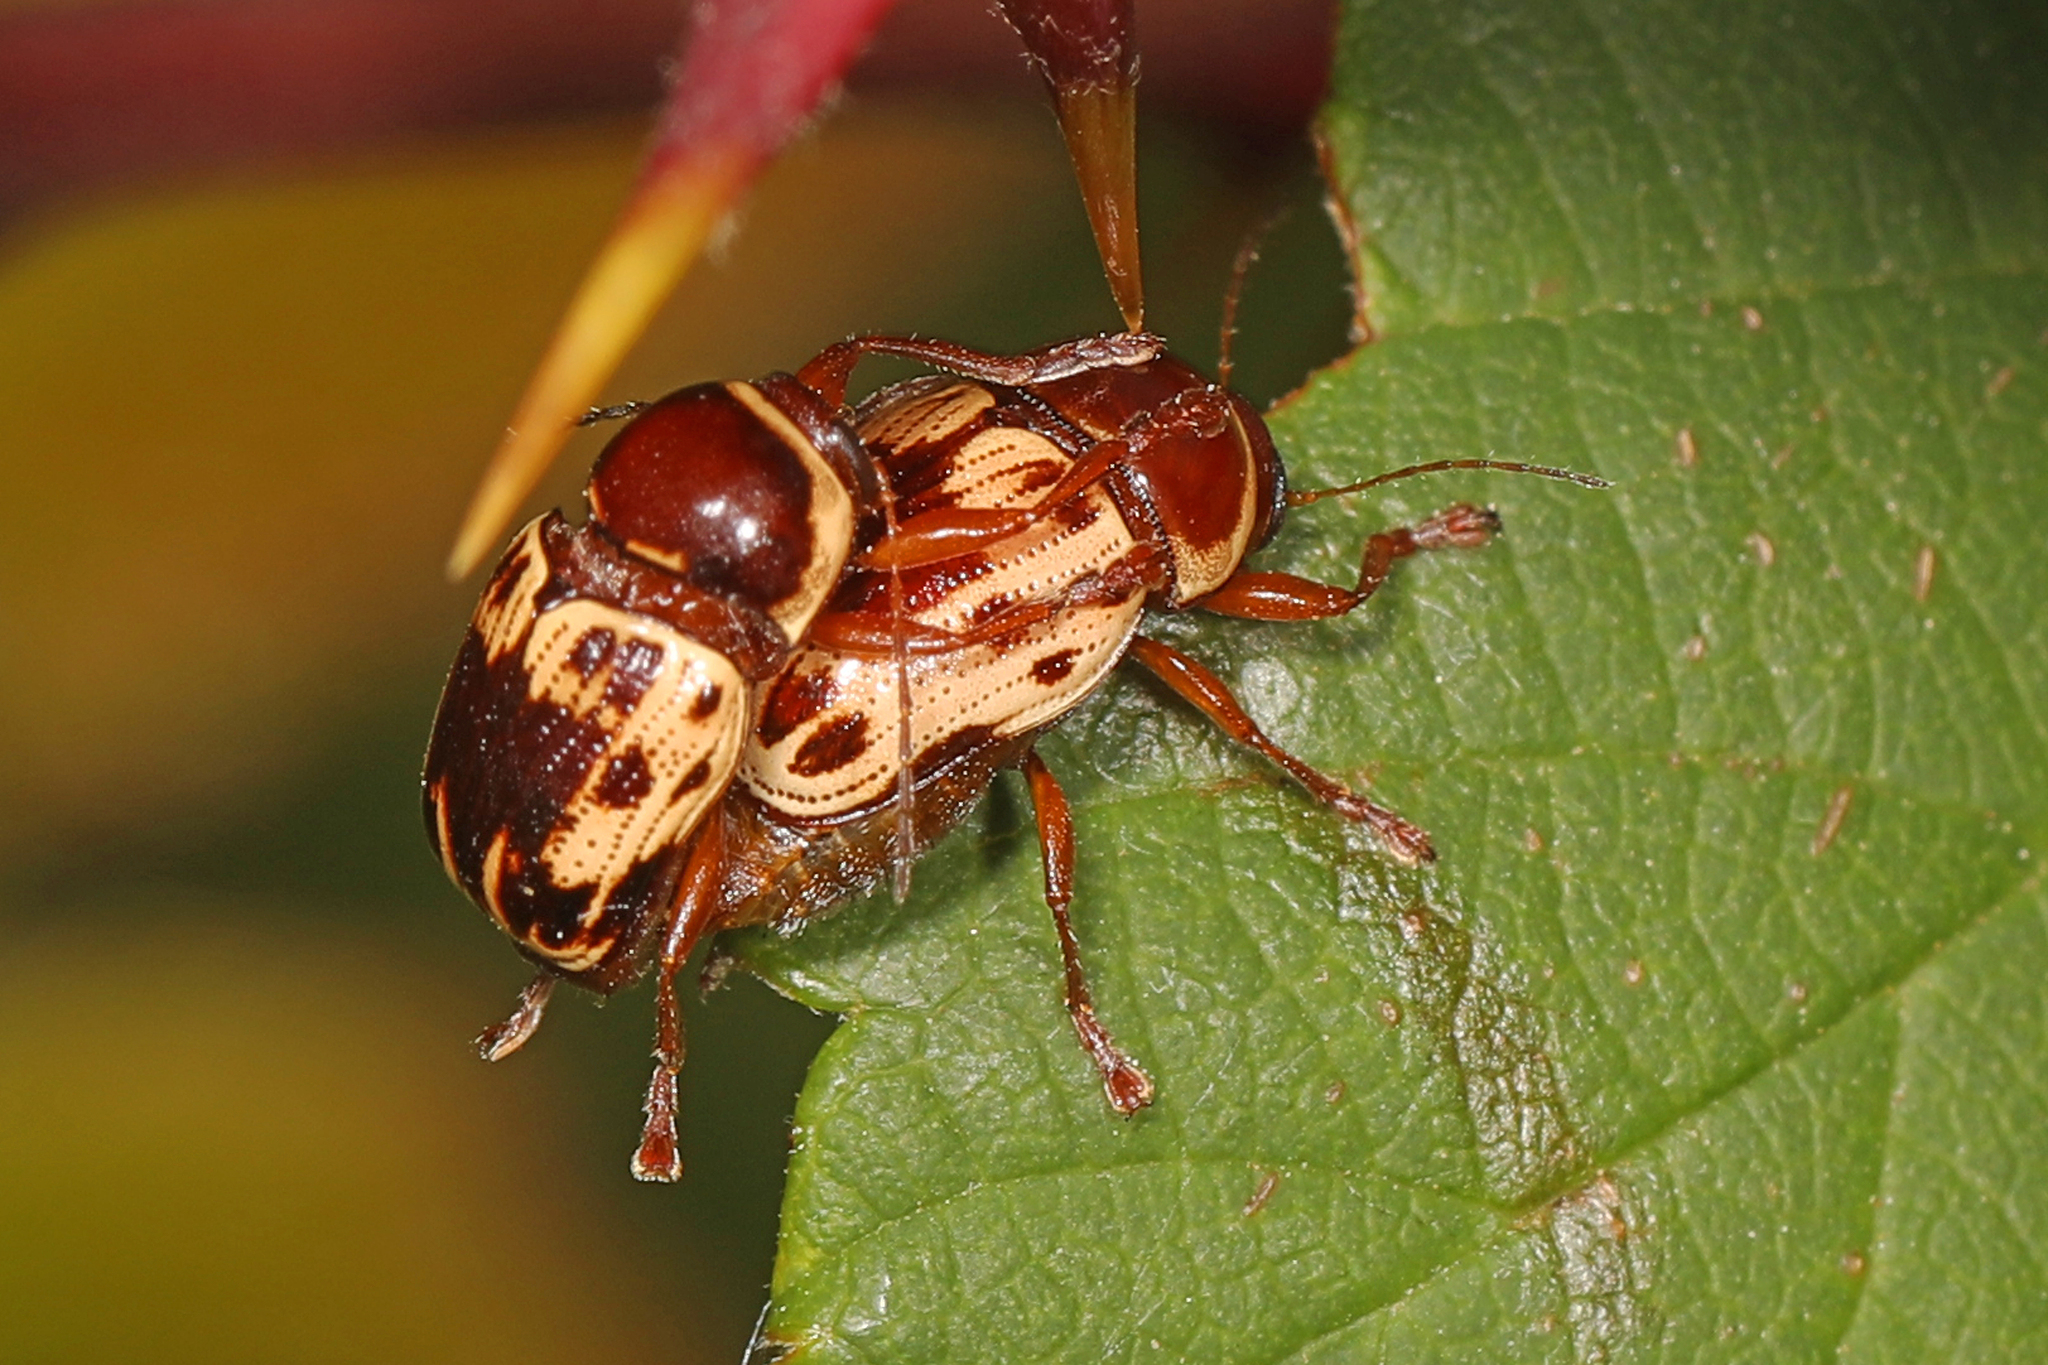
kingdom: Animalia
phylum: Arthropoda
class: Insecta
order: Coleoptera
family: Chrysomelidae
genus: Cryptocephalus
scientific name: Cryptocephalus mutabilis
